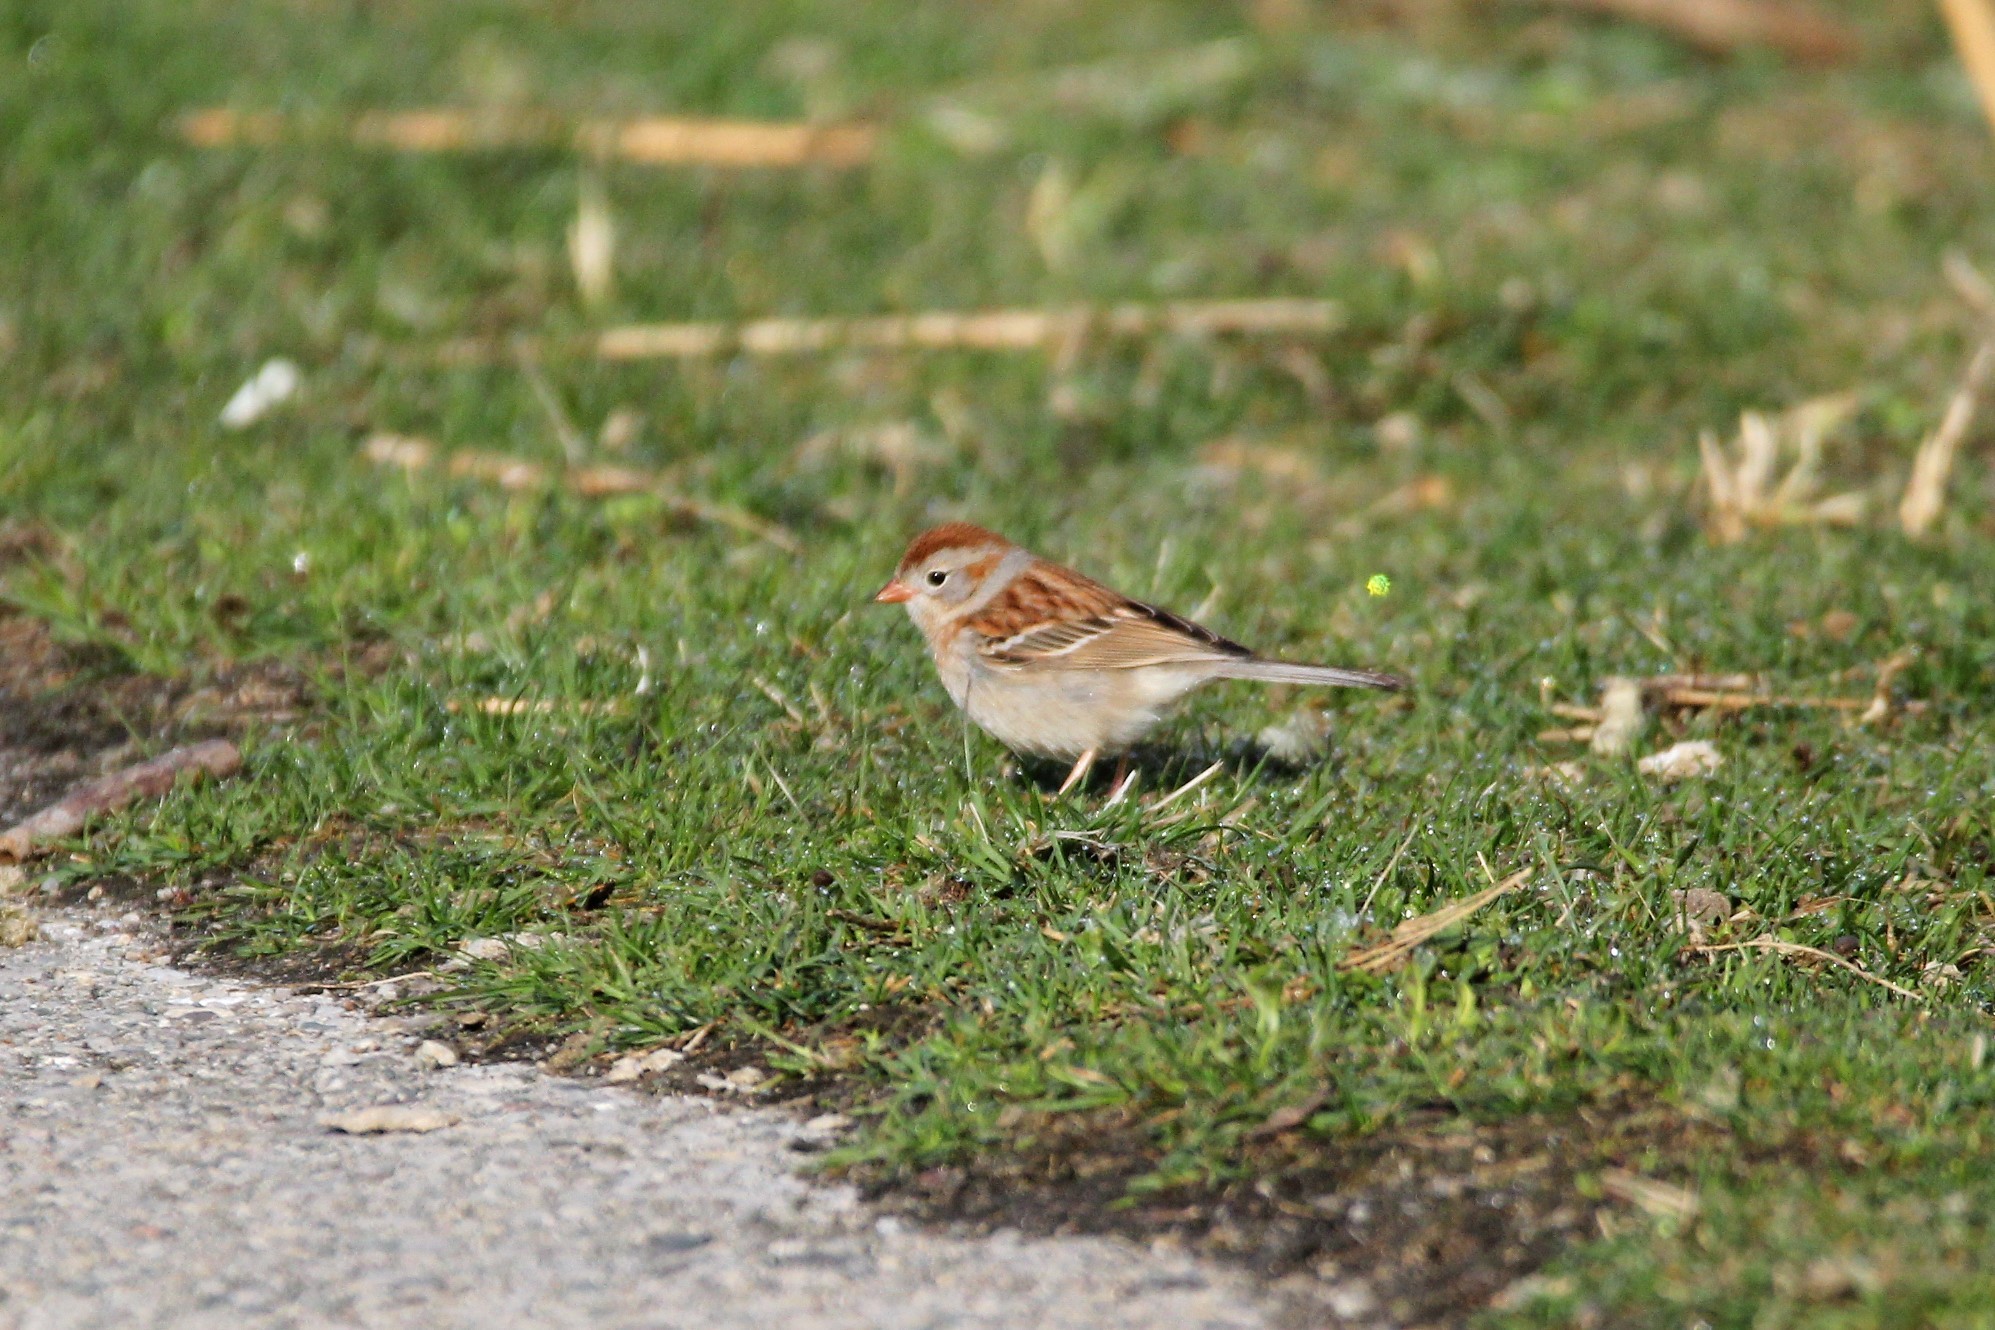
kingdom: Animalia
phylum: Chordata
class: Aves
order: Passeriformes
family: Passerellidae
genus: Spizella
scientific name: Spizella pusilla
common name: Field sparrow
